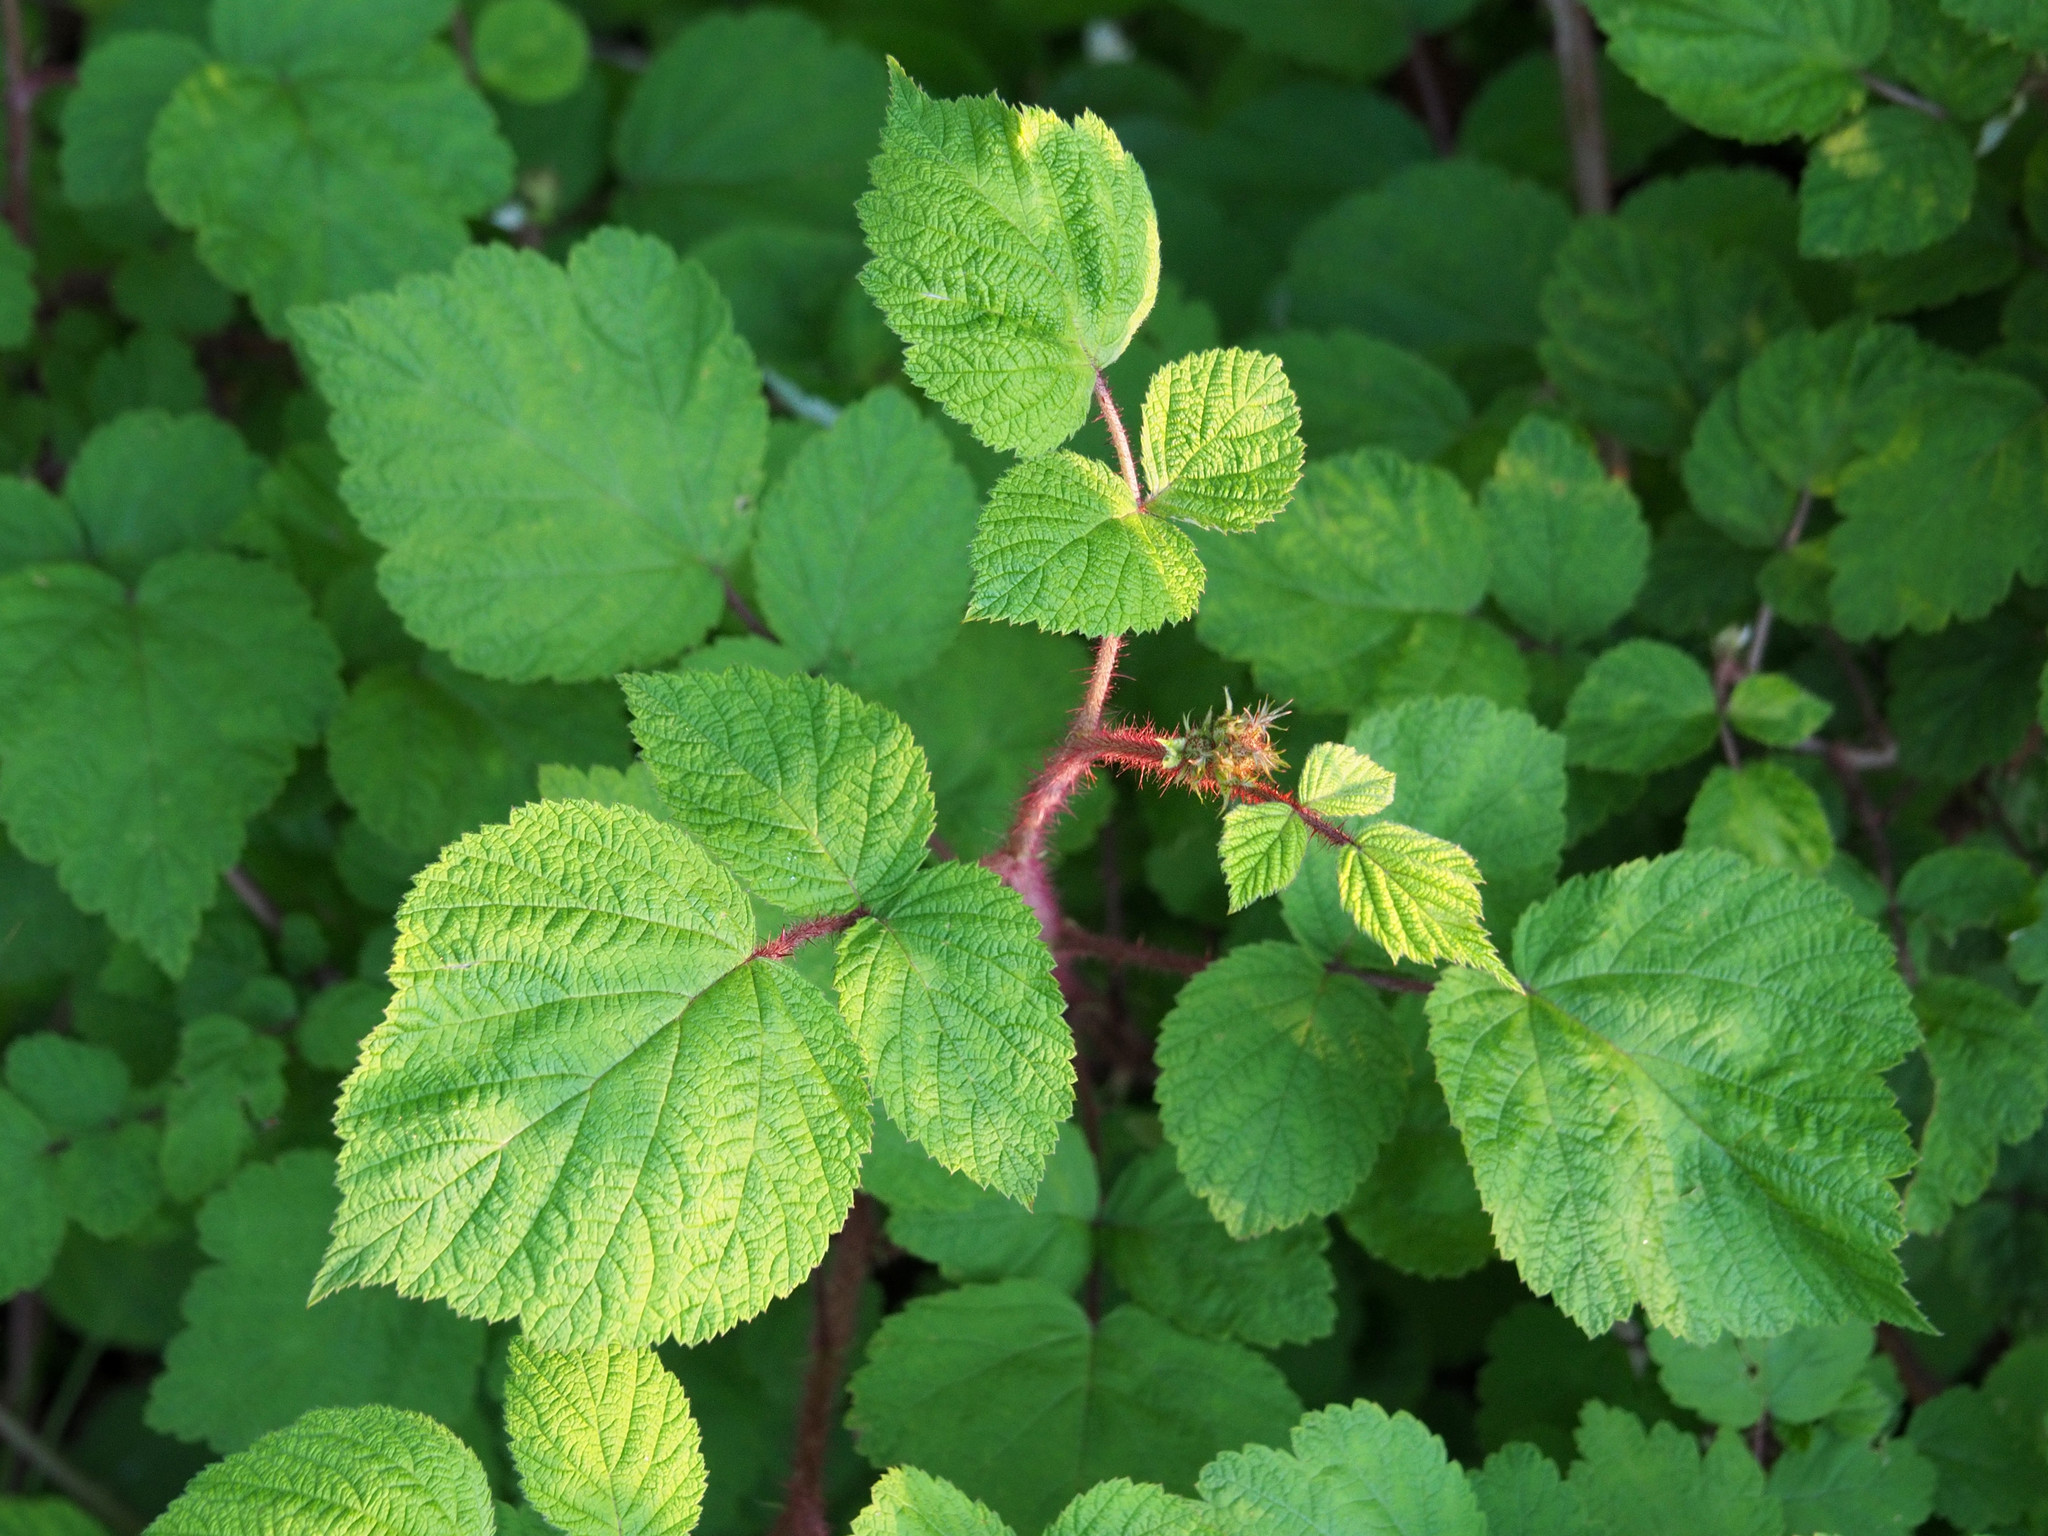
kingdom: Plantae
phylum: Tracheophyta
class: Magnoliopsida
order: Rosales
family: Rosaceae
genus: Rubus
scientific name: Rubus phoenicolasius
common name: Japanese wineberry
